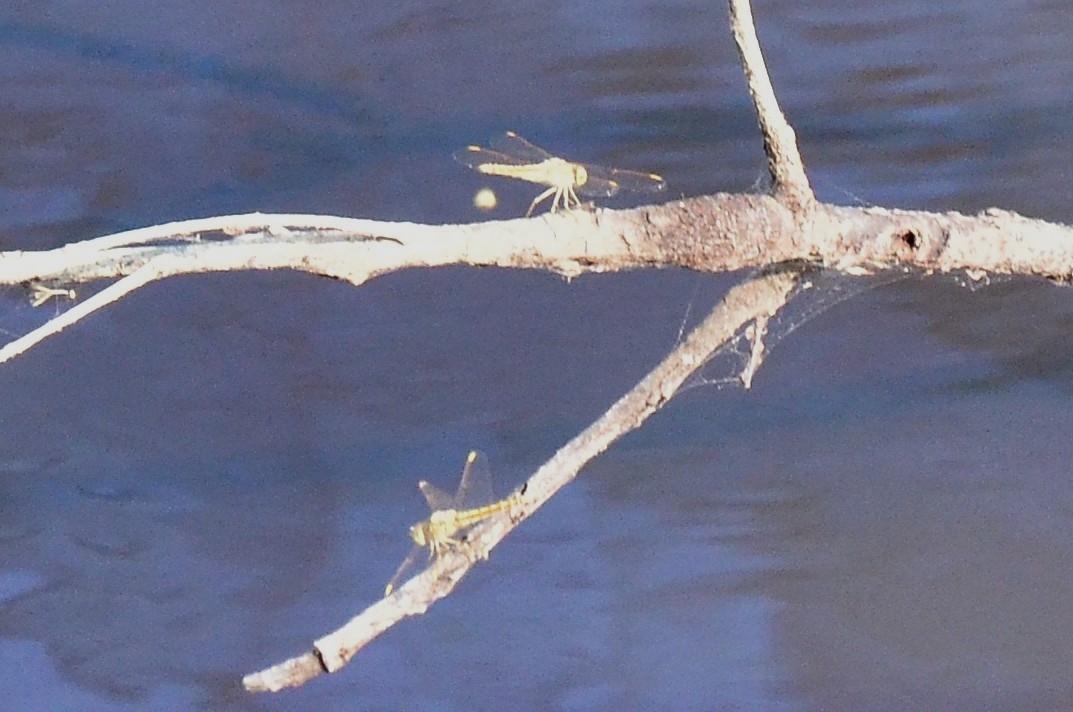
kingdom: Animalia
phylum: Arthropoda
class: Insecta
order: Odonata
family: Libellulidae
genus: Brachythemis
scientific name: Brachythemis contaminata
